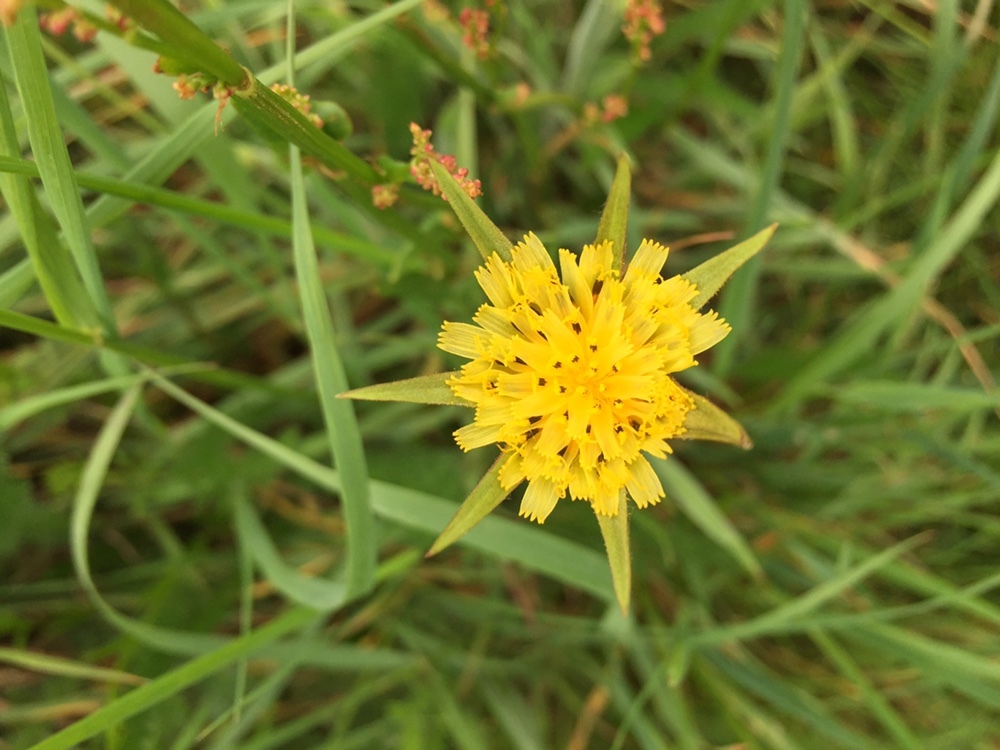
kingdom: Plantae
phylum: Tracheophyta
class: Magnoliopsida
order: Asterales
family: Asteraceae
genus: Tragopogon
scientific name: Tragopogon pratensis
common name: Goat's-beard
